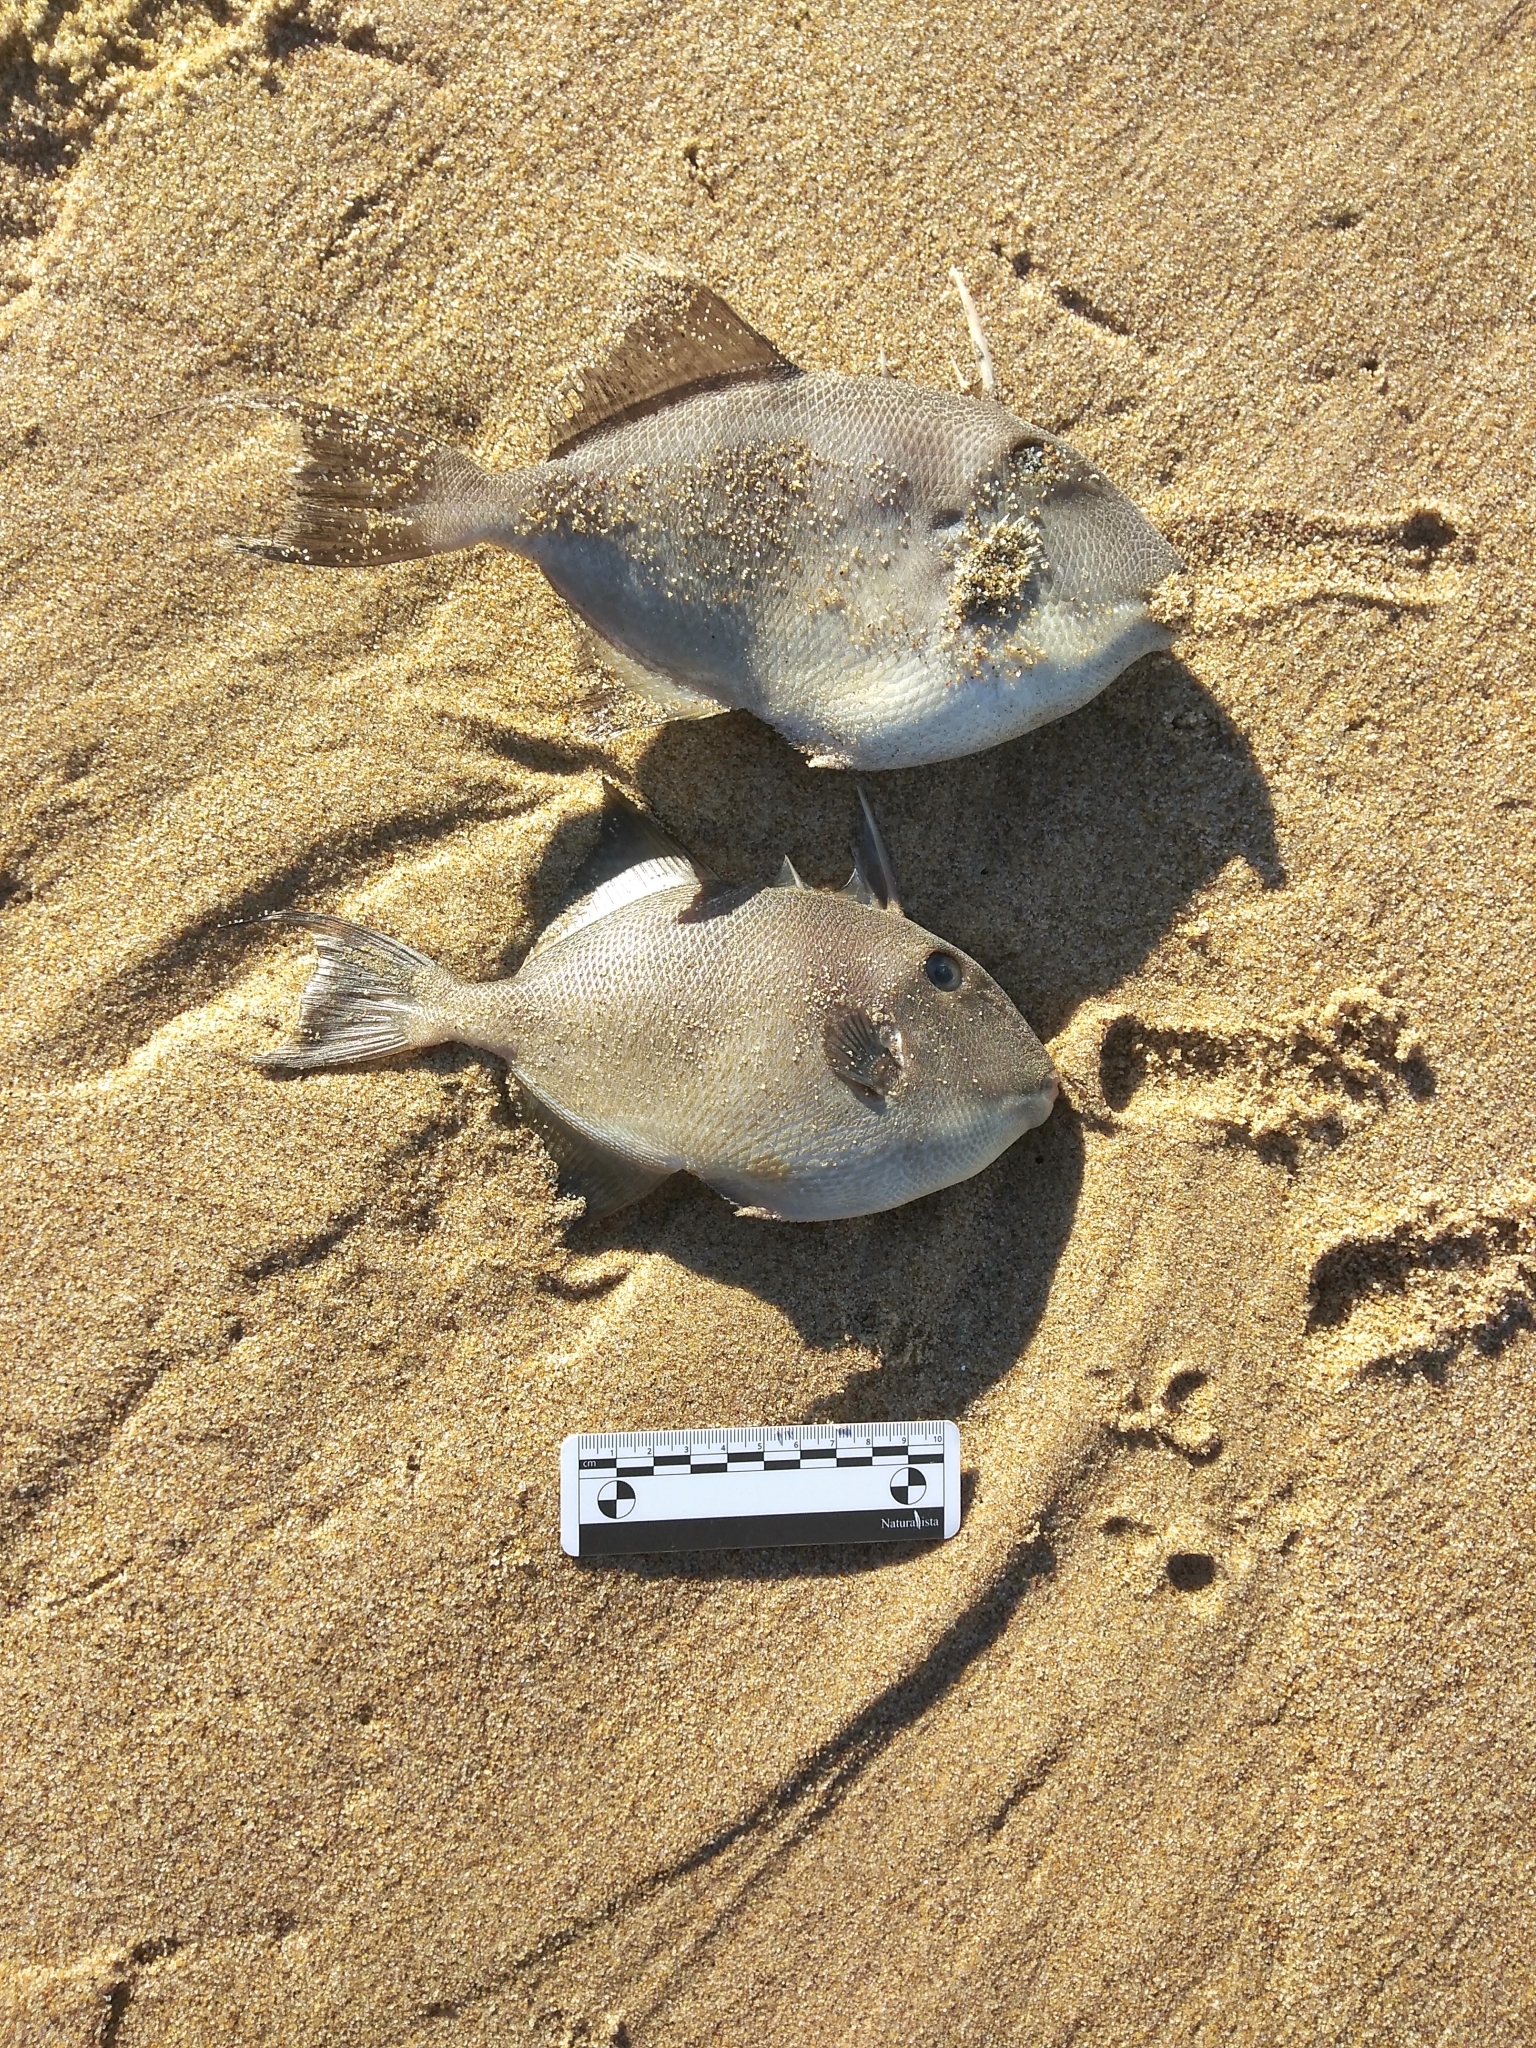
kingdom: Animalia
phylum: Chordata
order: Tetraodontiformes
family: Balistidae
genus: Balistes
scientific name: Balistes capriscus
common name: Grey triggerfish
